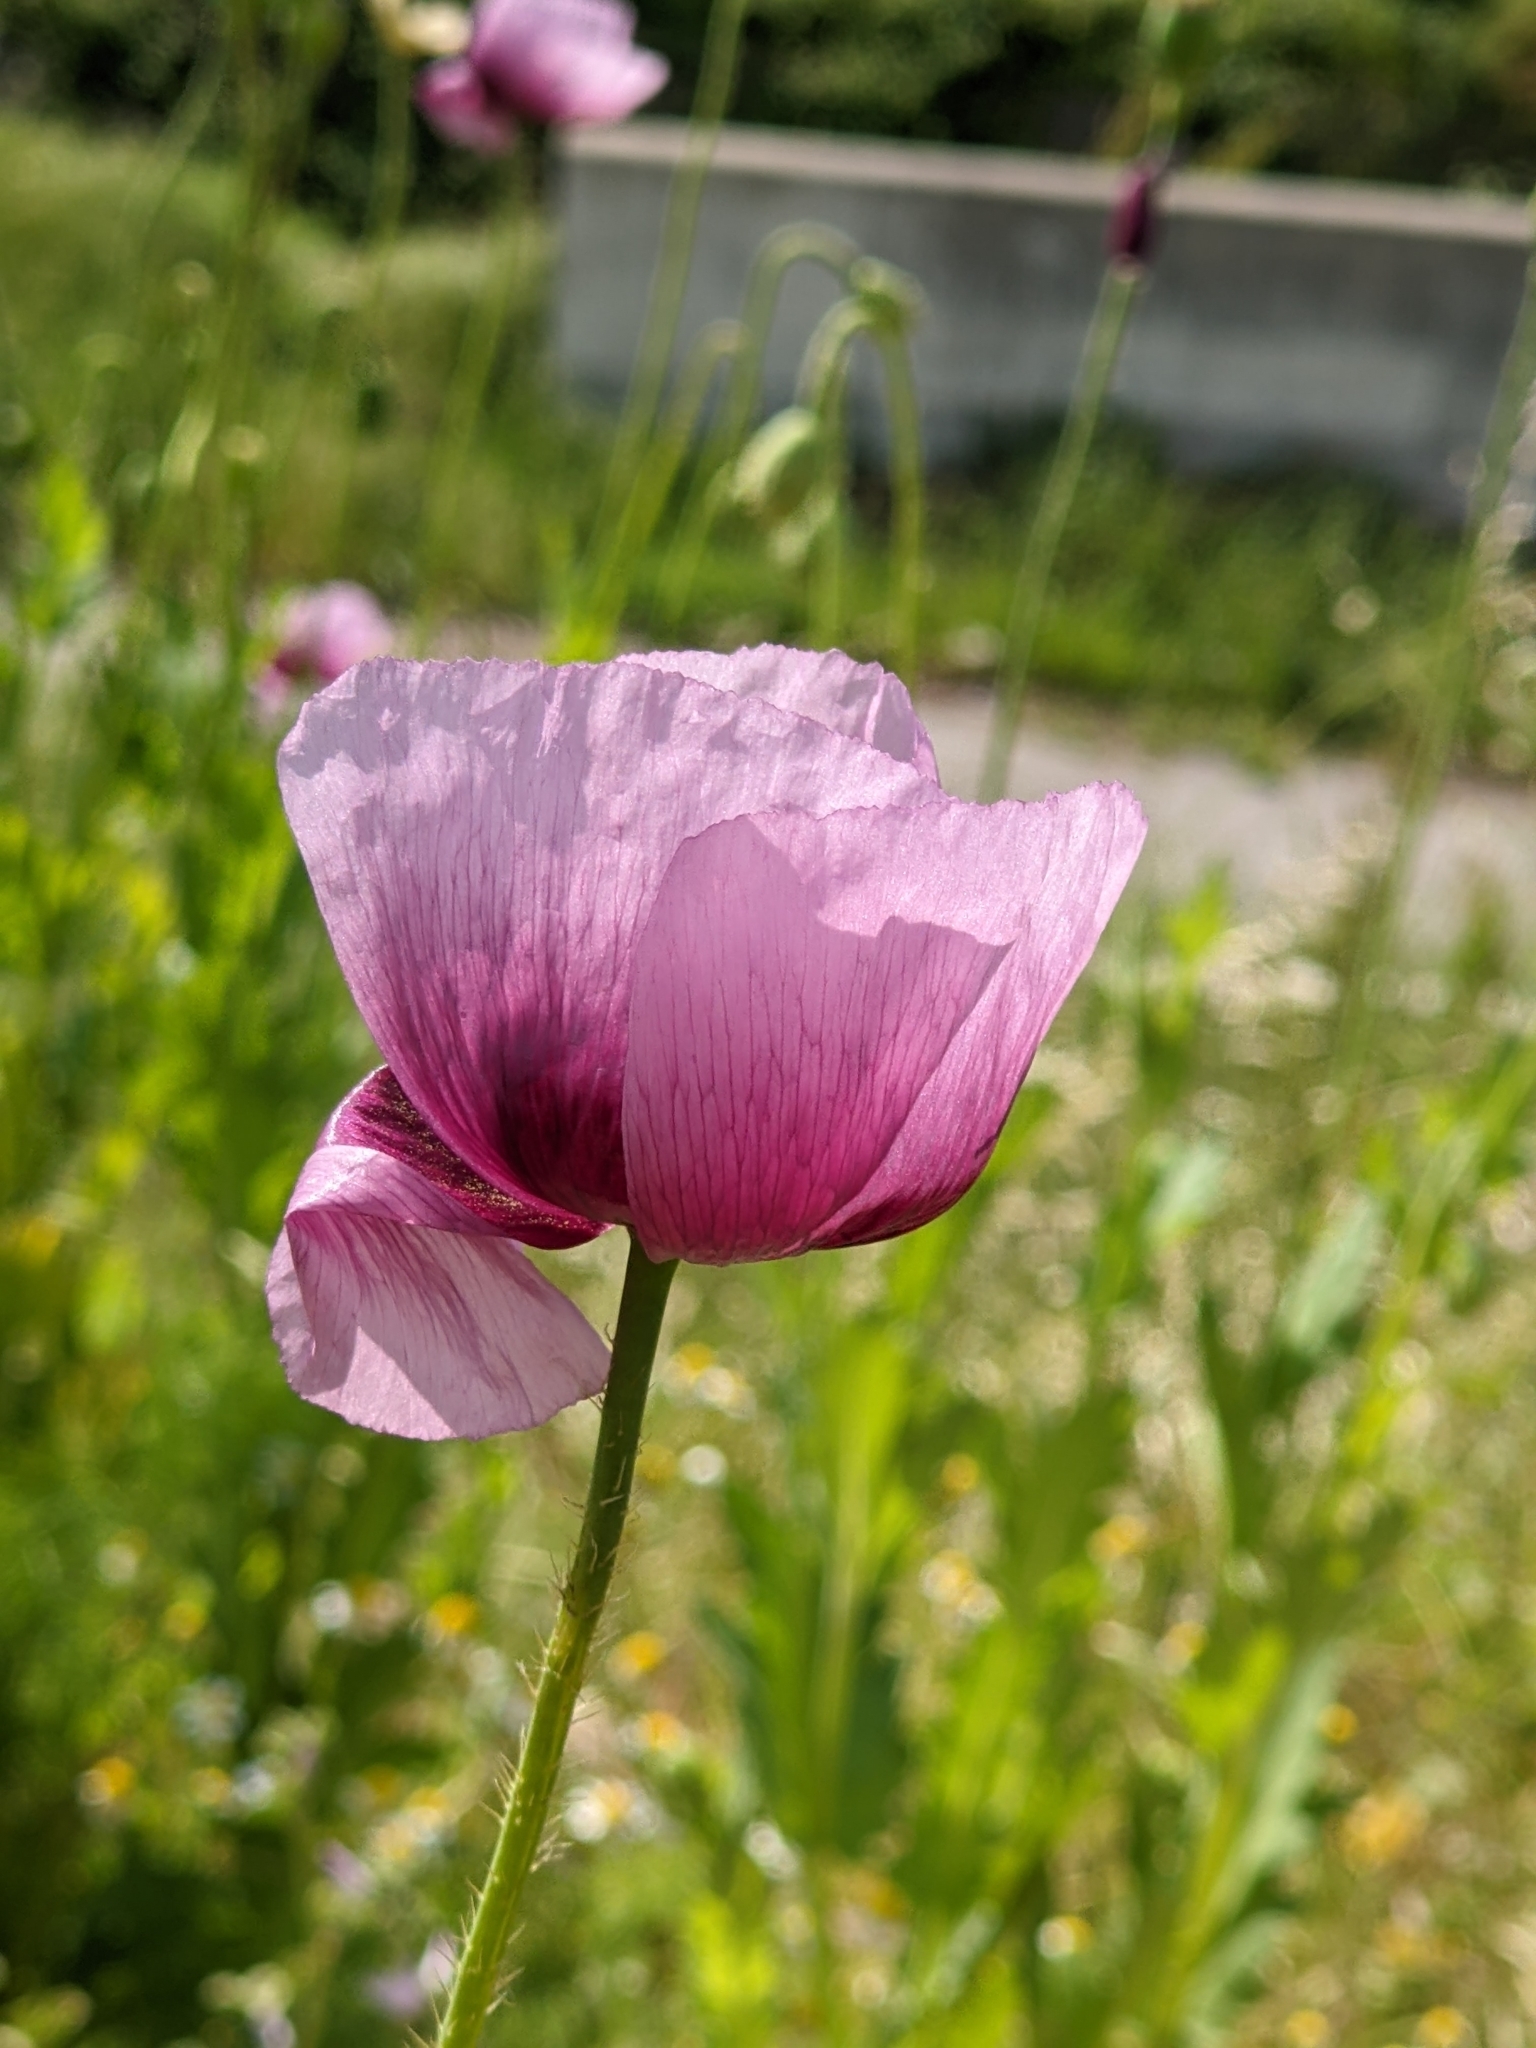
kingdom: Plantae
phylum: Tracheophyta
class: Magnoliopsida
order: Ranunculales
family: Papaveraceae
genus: Papaver
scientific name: Papaver somniferum
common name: Opium poppy
